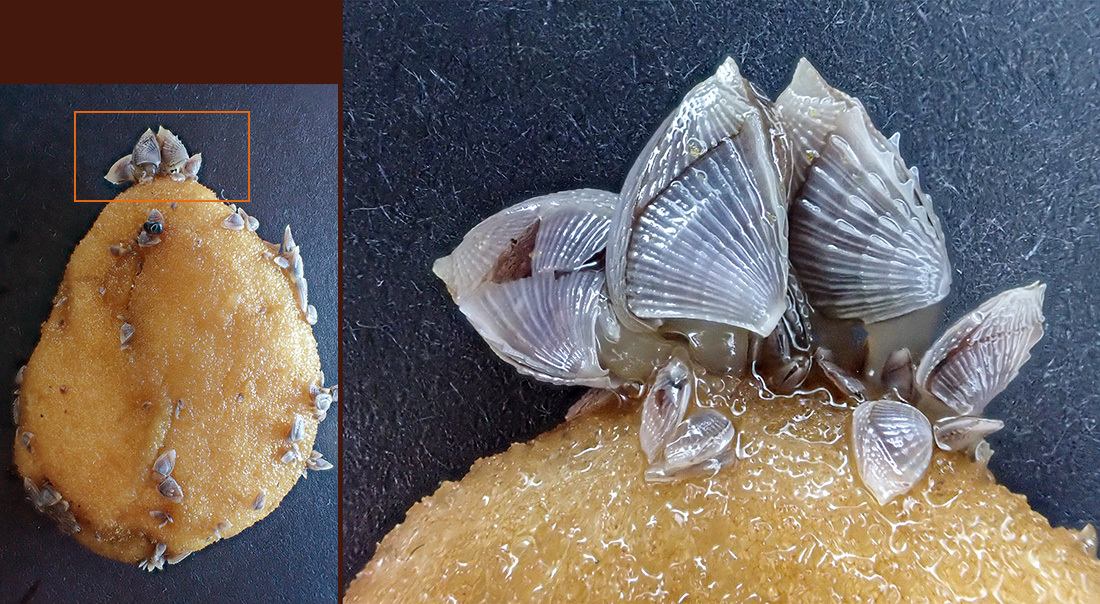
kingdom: Animalia
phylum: Arthropoda
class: Maxillopoda
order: Pedunculata
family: Lepadidae
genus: Lepas
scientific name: Lepas pectinata
